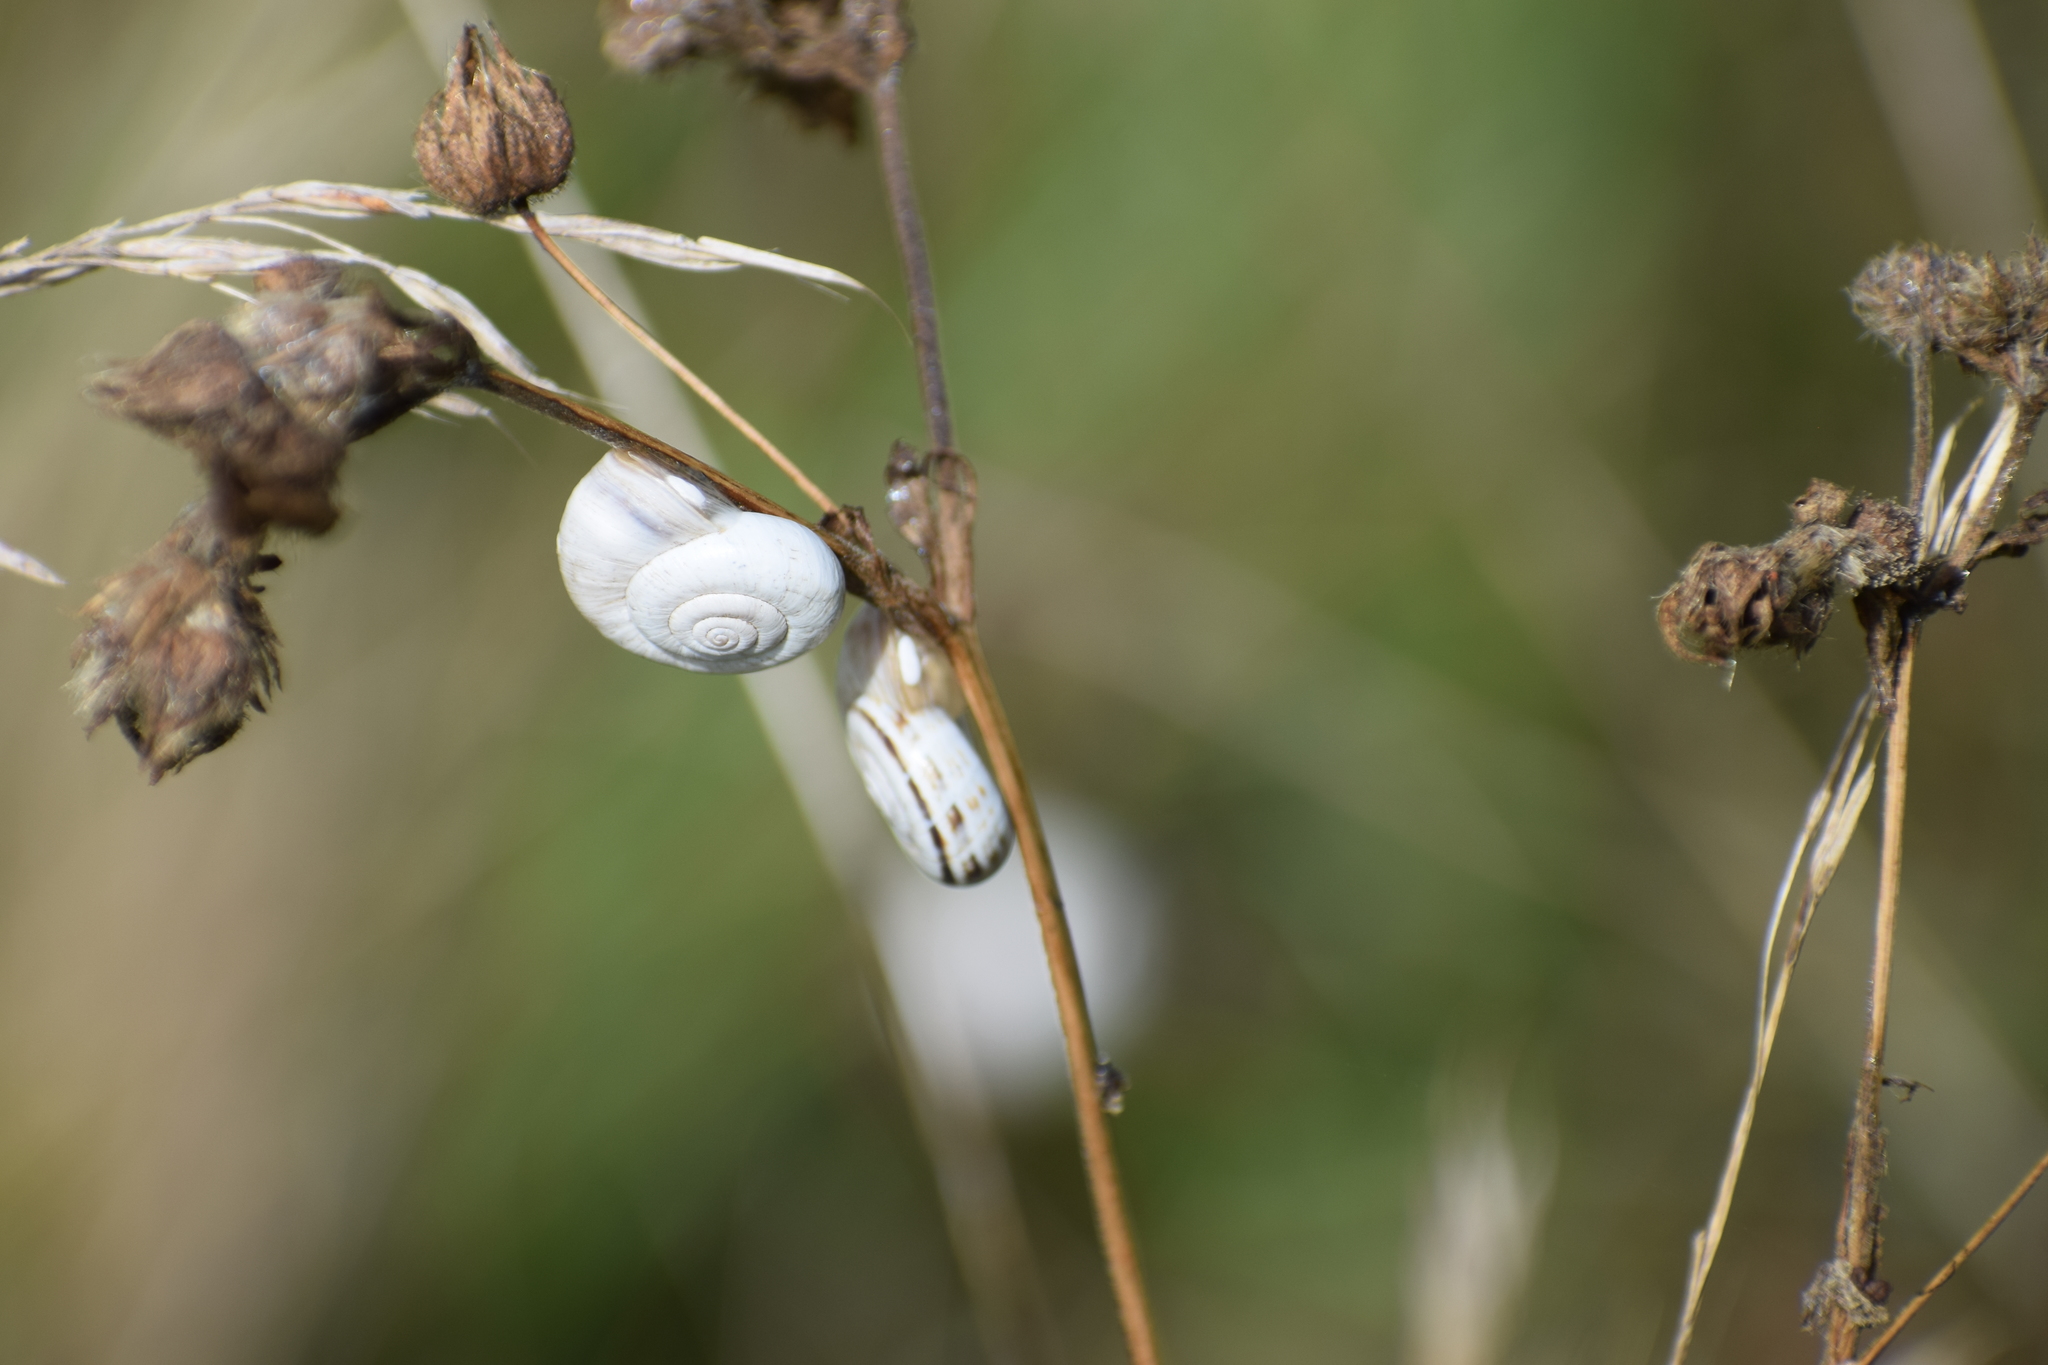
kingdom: Animalia
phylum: Mollusca
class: Gastropoda
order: Stylommatophora
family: Geomitridae
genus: Xerolenta
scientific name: Xerolenta obvia
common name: White heath snail
